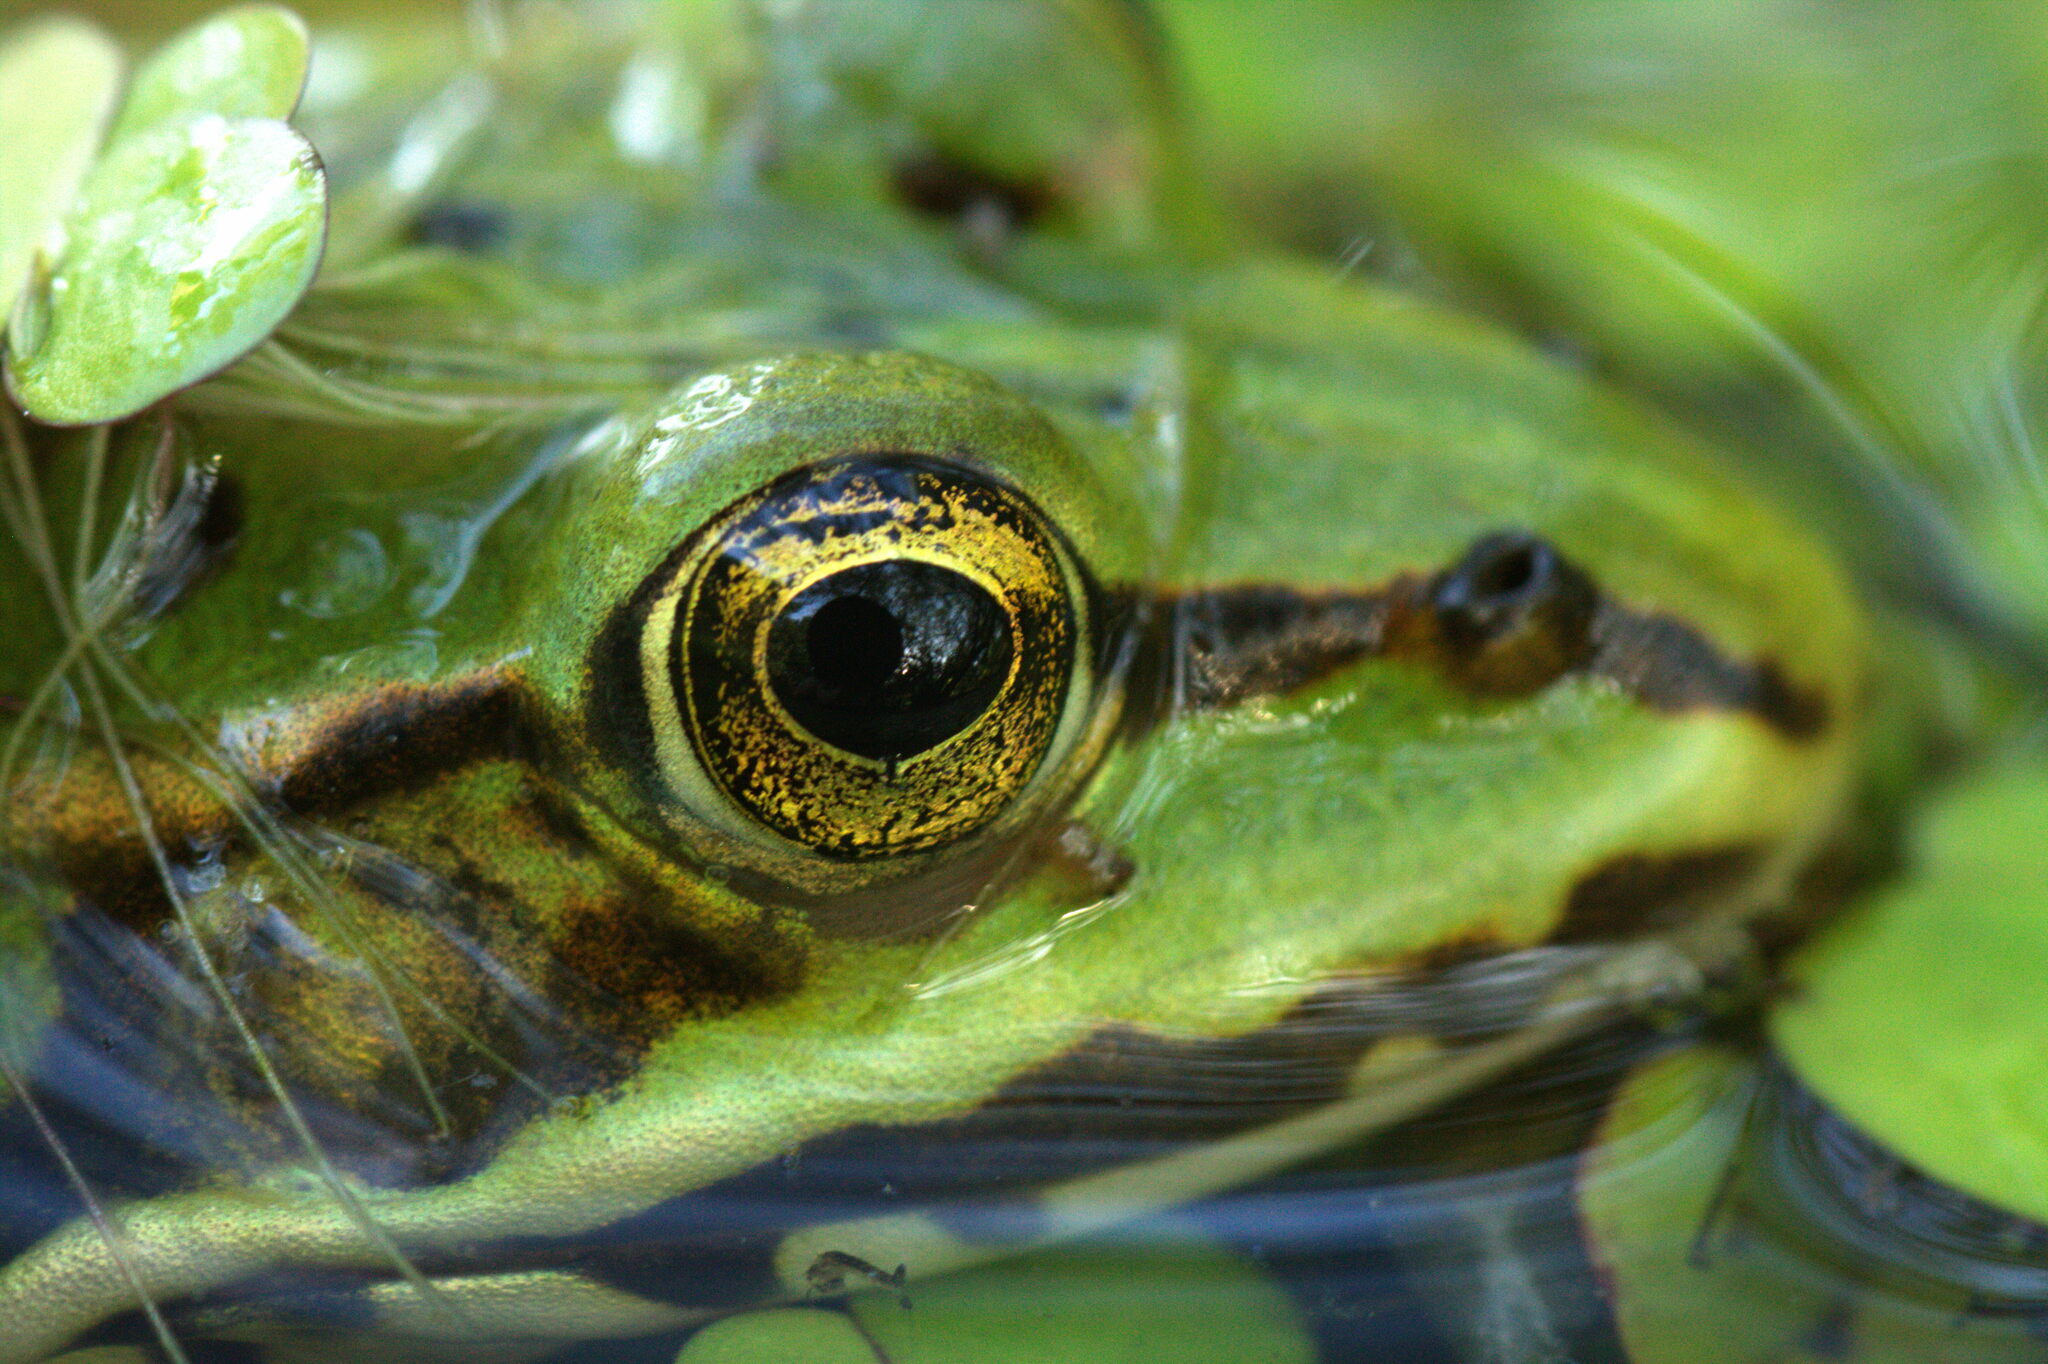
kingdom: Animalia
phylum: Chordata
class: Amphibia
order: Anura
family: Ranidae
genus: Pelophylax
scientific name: Pelophylax
